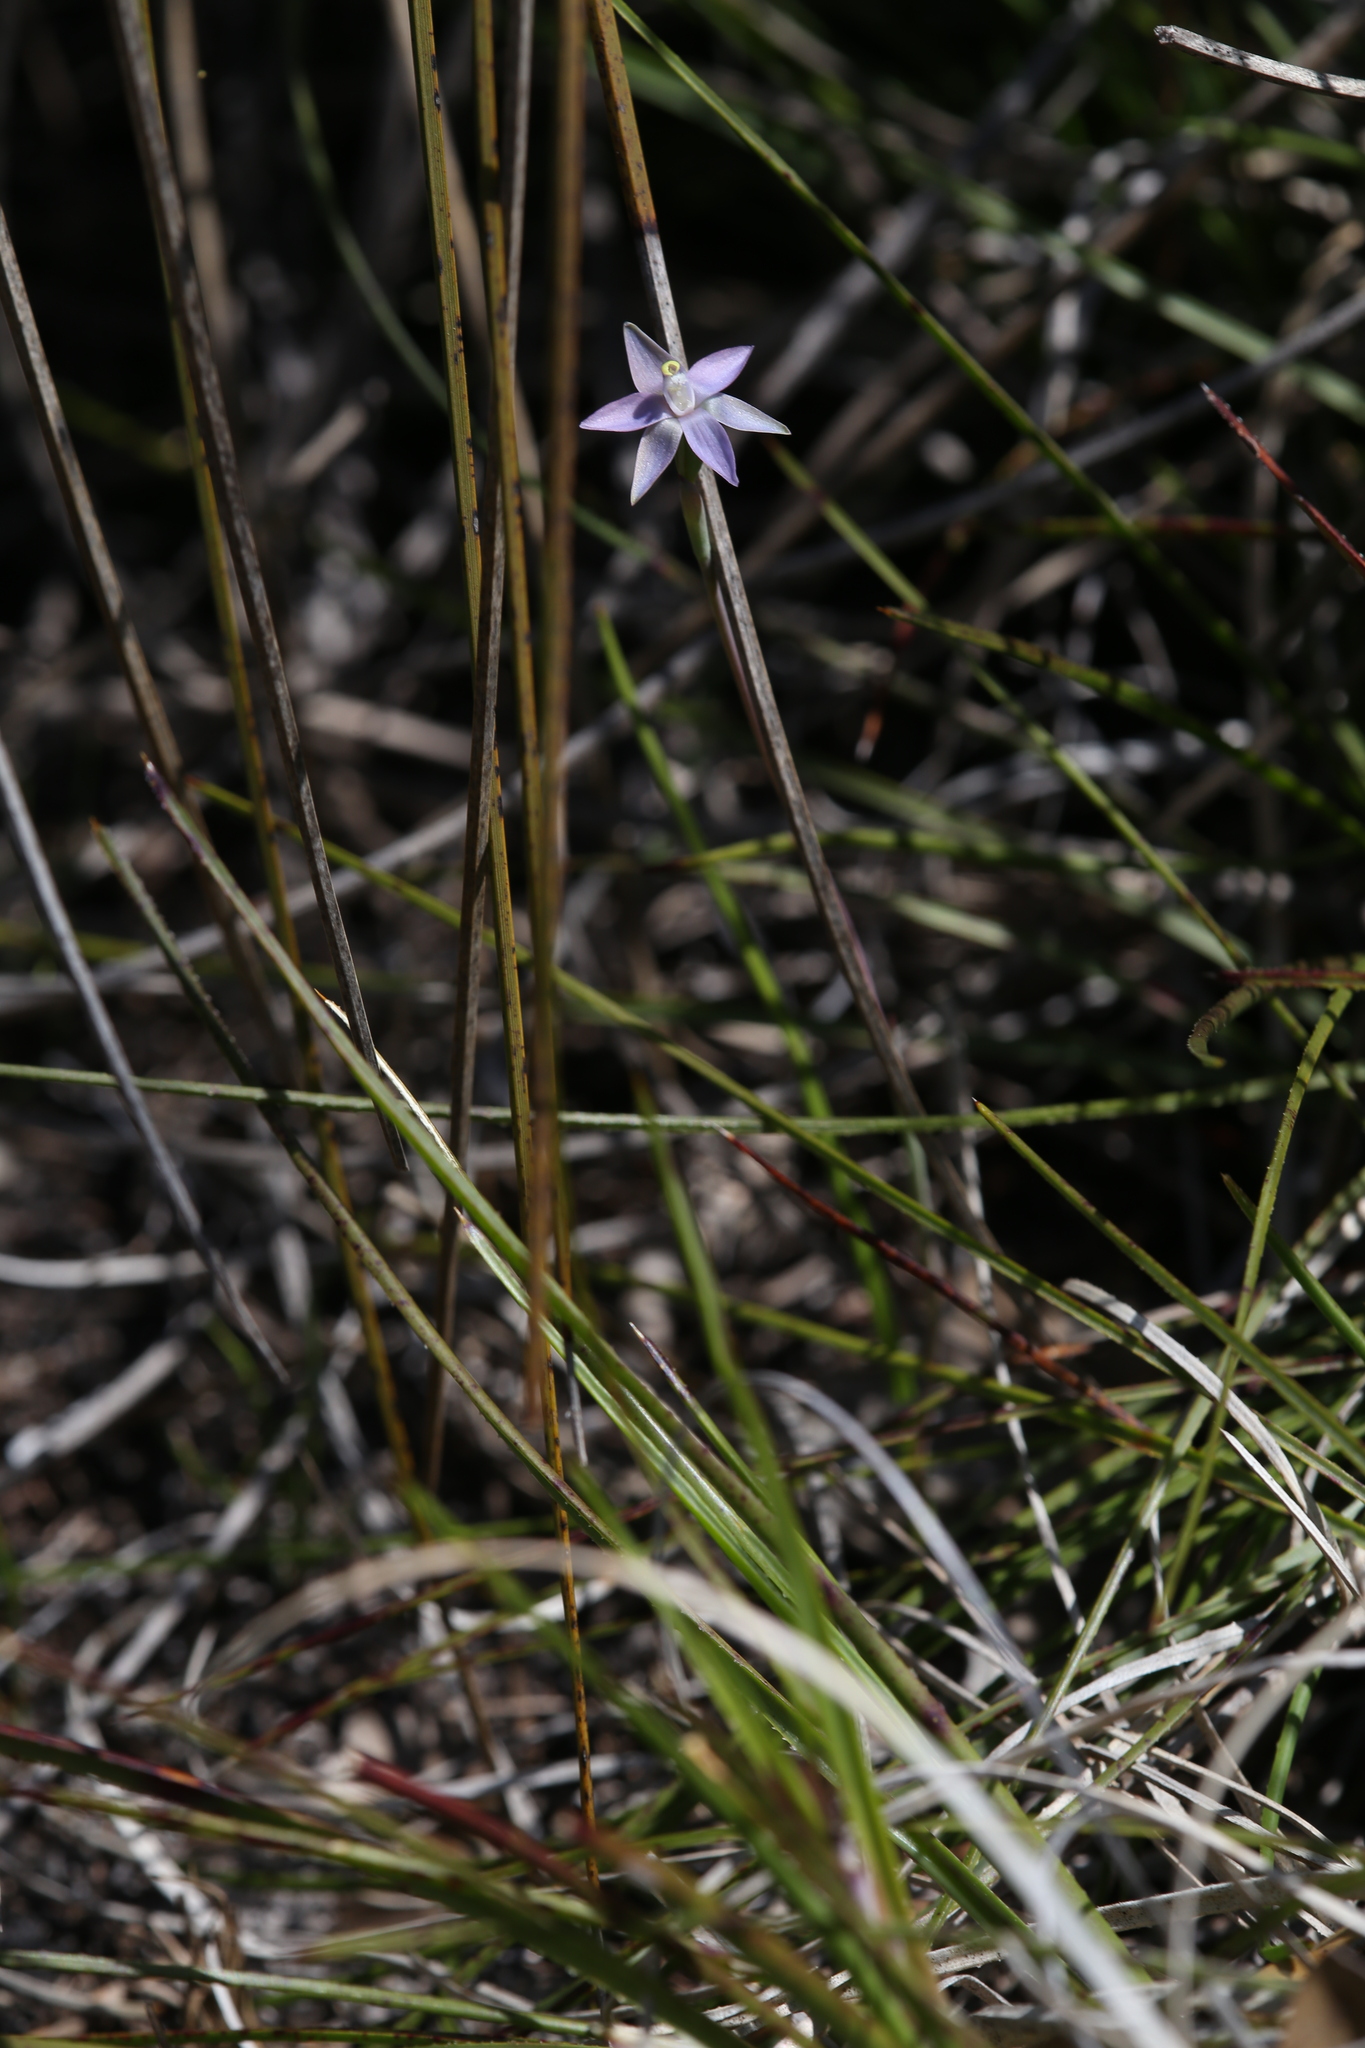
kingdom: Plantae
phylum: Tracheophyta
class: Liliopsida
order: Asparagales
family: Orchidaceae
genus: Thelymitra
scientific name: Thelymitra vulgaris
